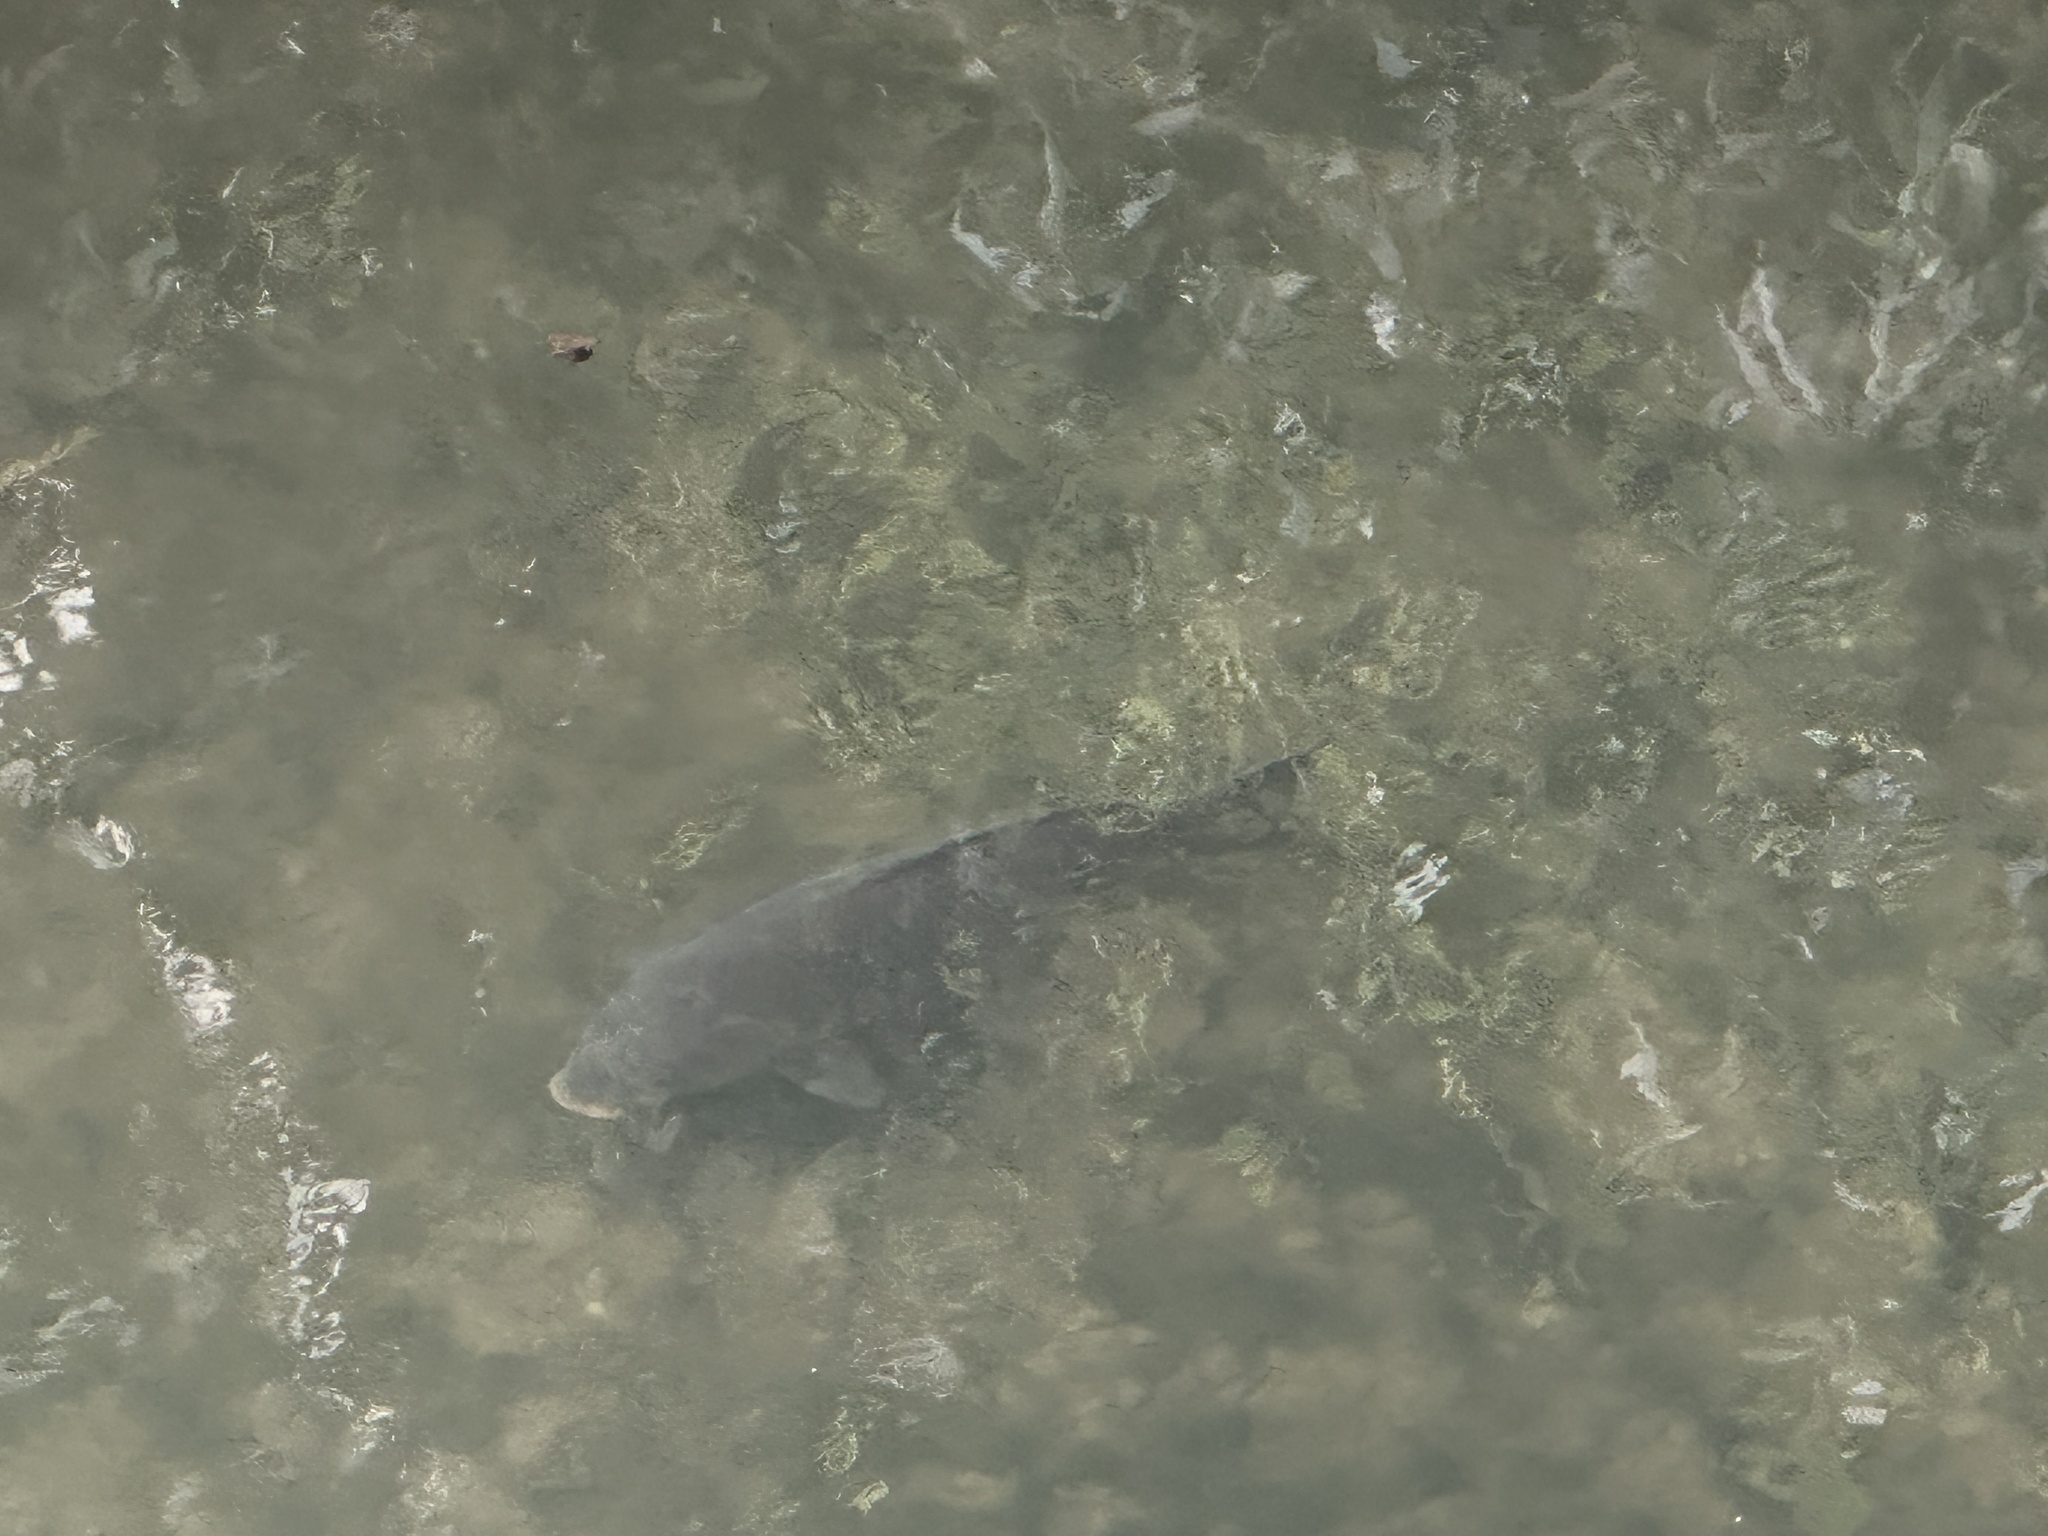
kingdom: Animalia
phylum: Chordata
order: Cypriniformes
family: Cyprinidae
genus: Cyprinus
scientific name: Cyprinus carpio
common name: Common carp
